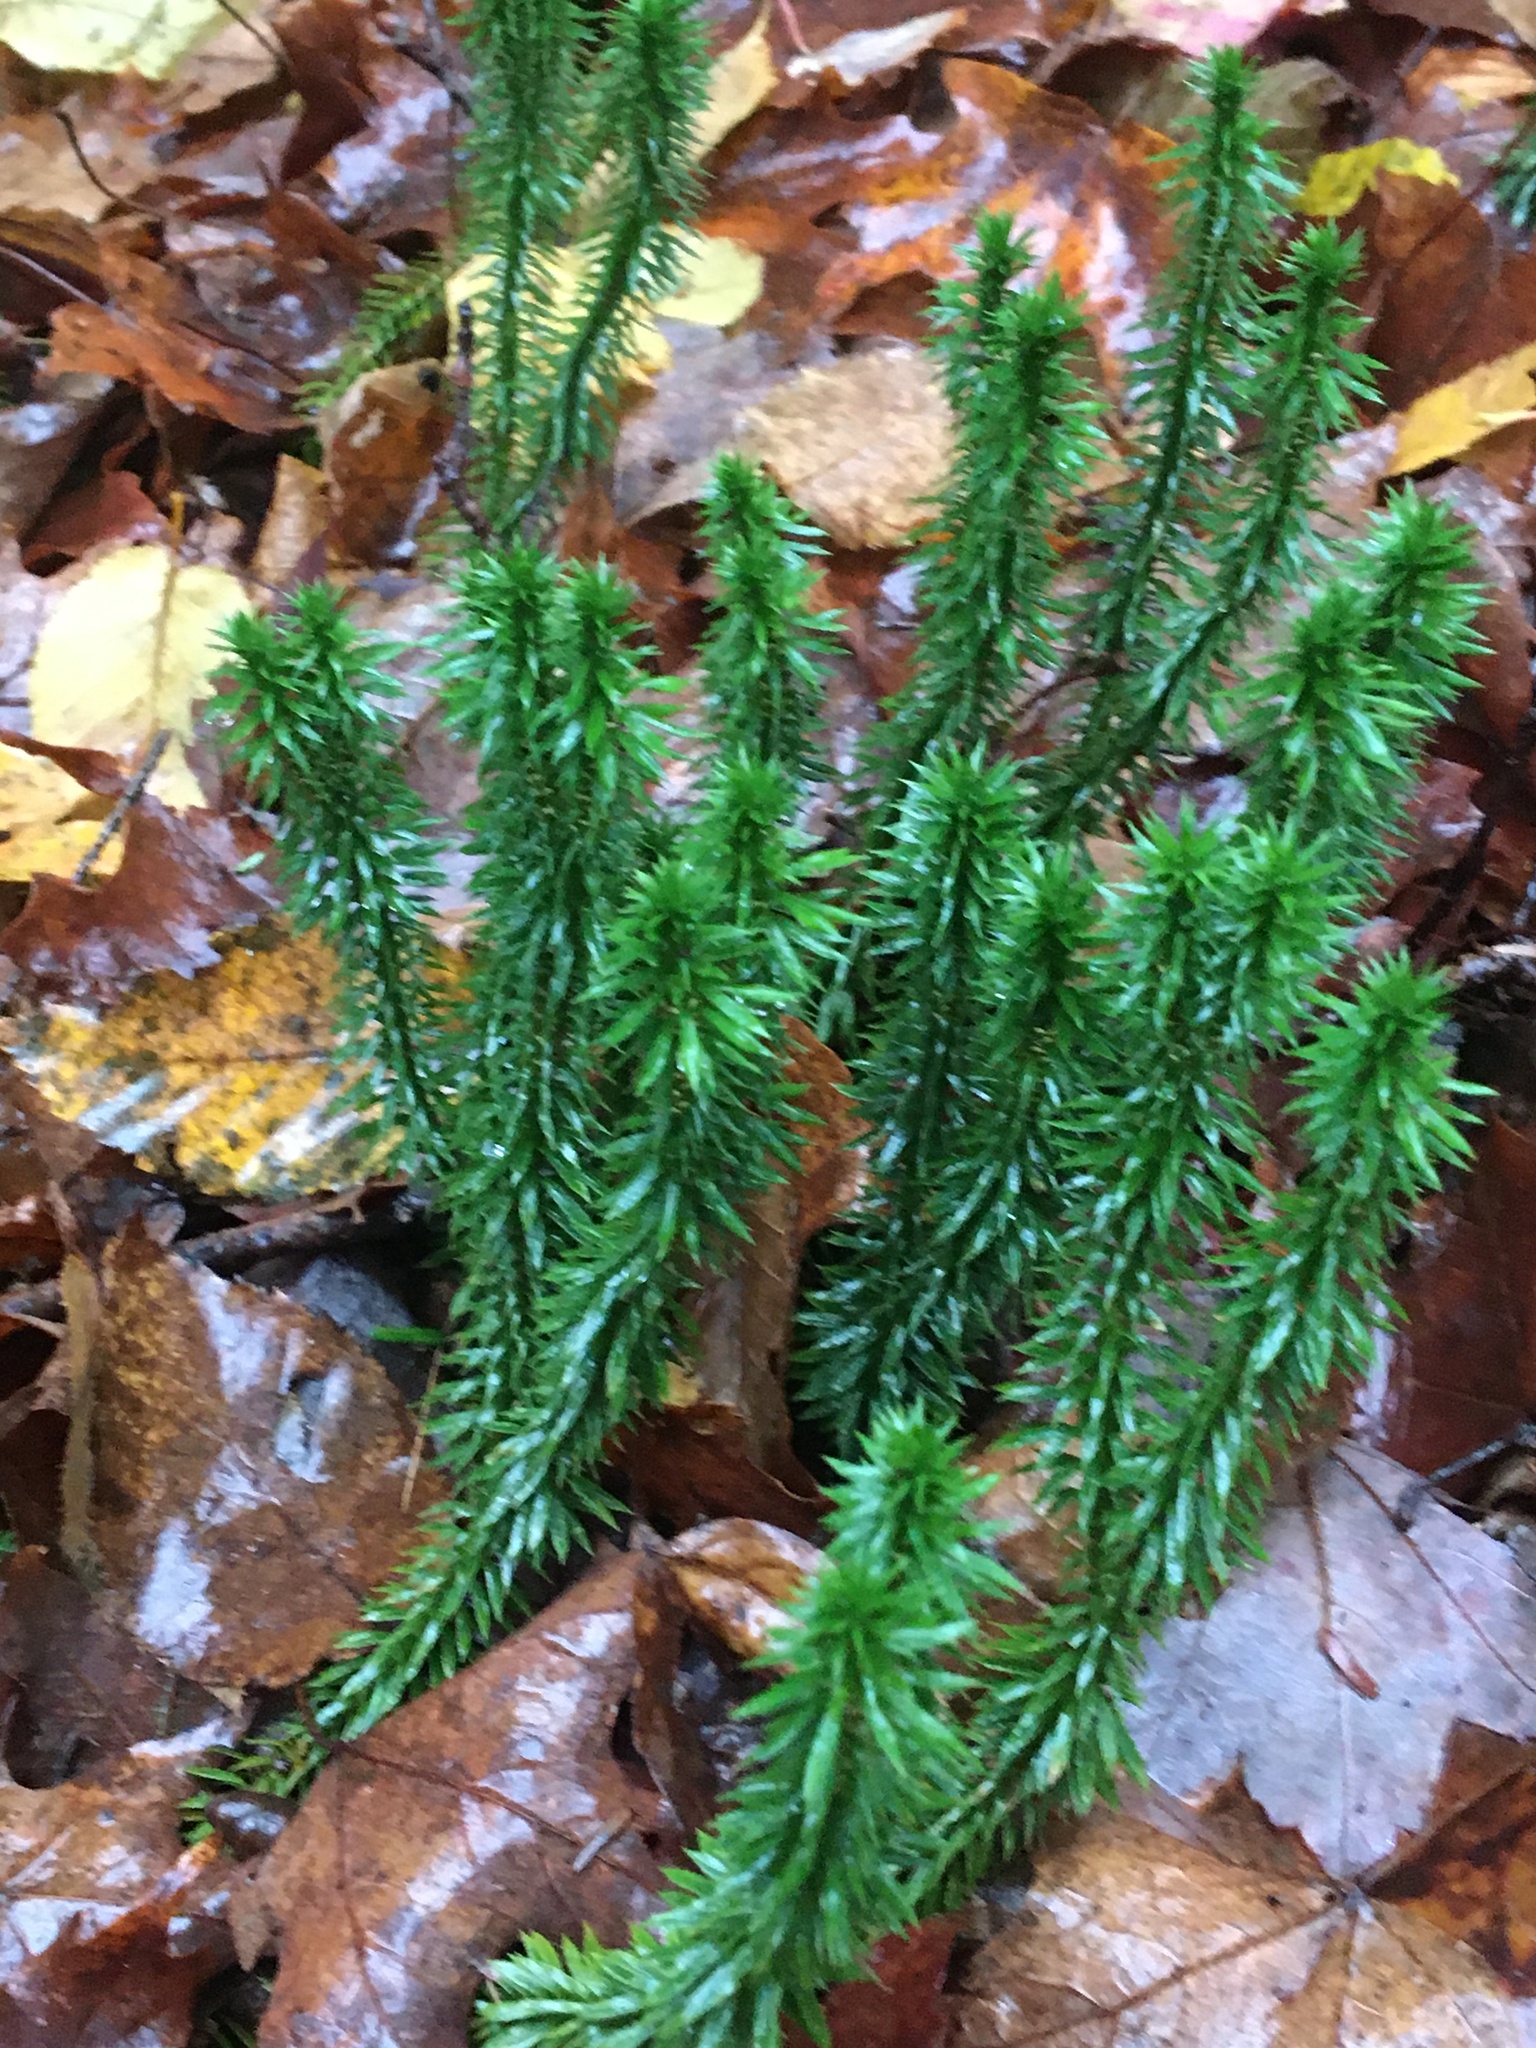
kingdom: Plantae
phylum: Tracheophyta
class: Lycopodiopsida
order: Lycopodiales
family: Lycopodiaceae
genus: Huperzia
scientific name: Huperzia lucidula
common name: Shining clubmoss
